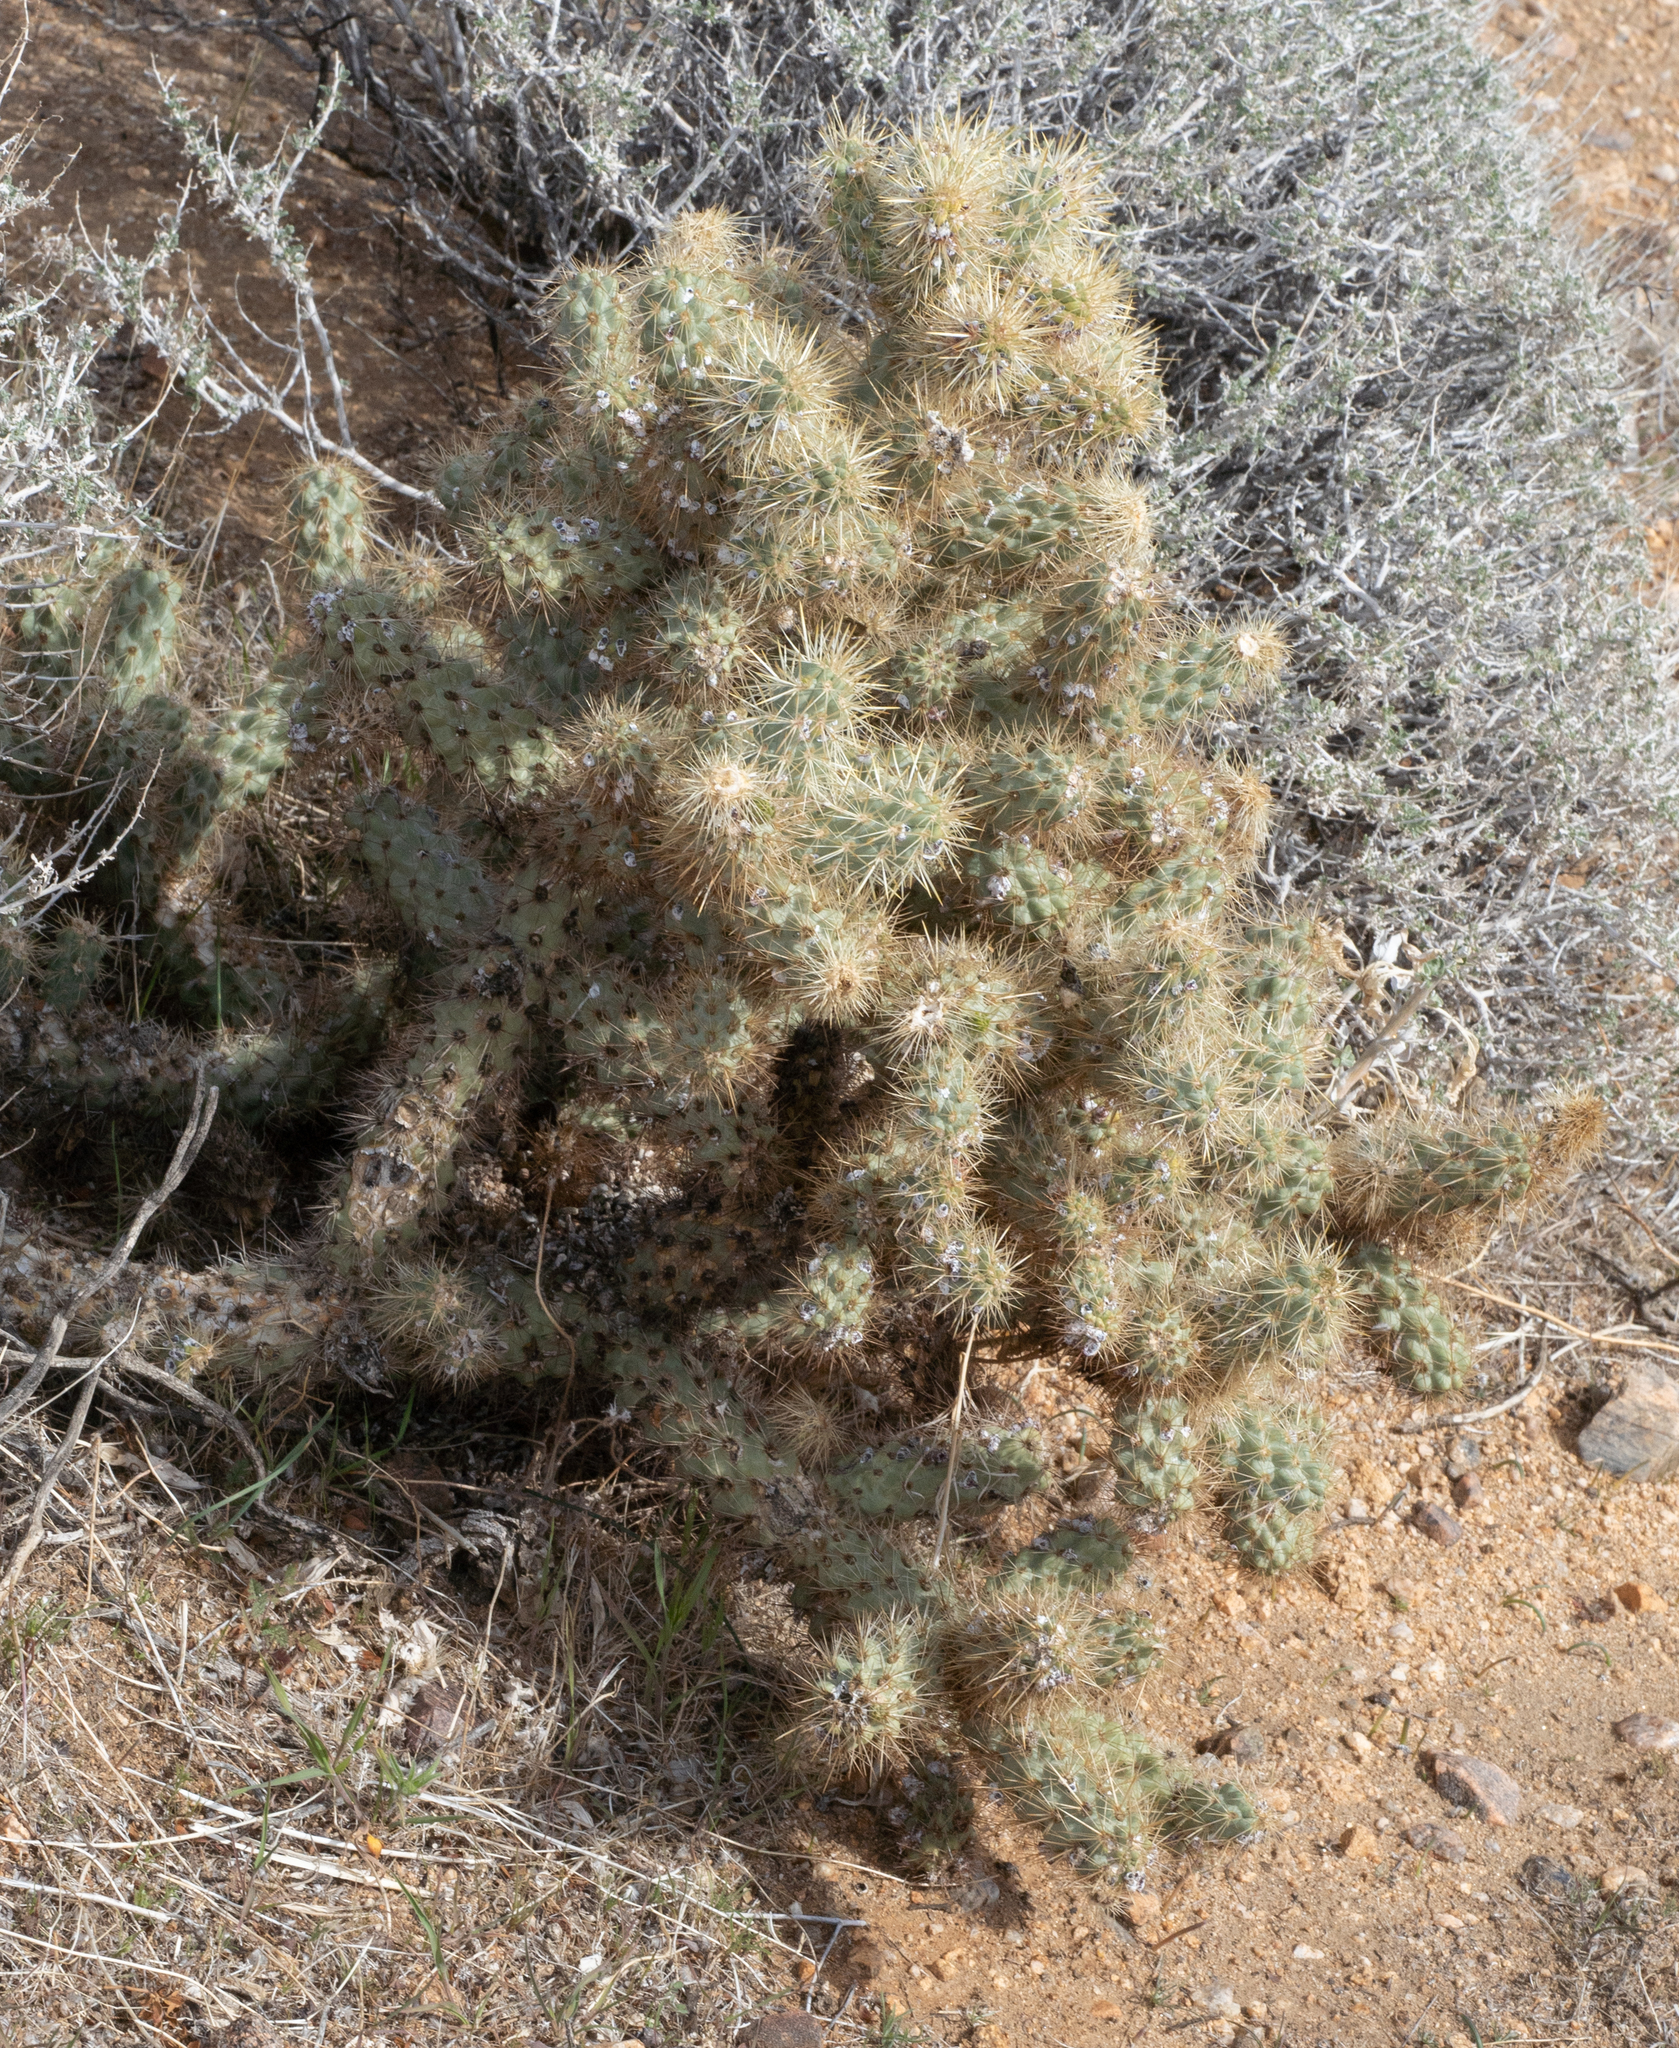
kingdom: Plantae
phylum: Tracheophyta
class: Magnoliopsida
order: Caryophyllales
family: Cactaceae
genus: Cylindropuntia
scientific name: Cylindropuntia echinocarpa
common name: Ground cholla
